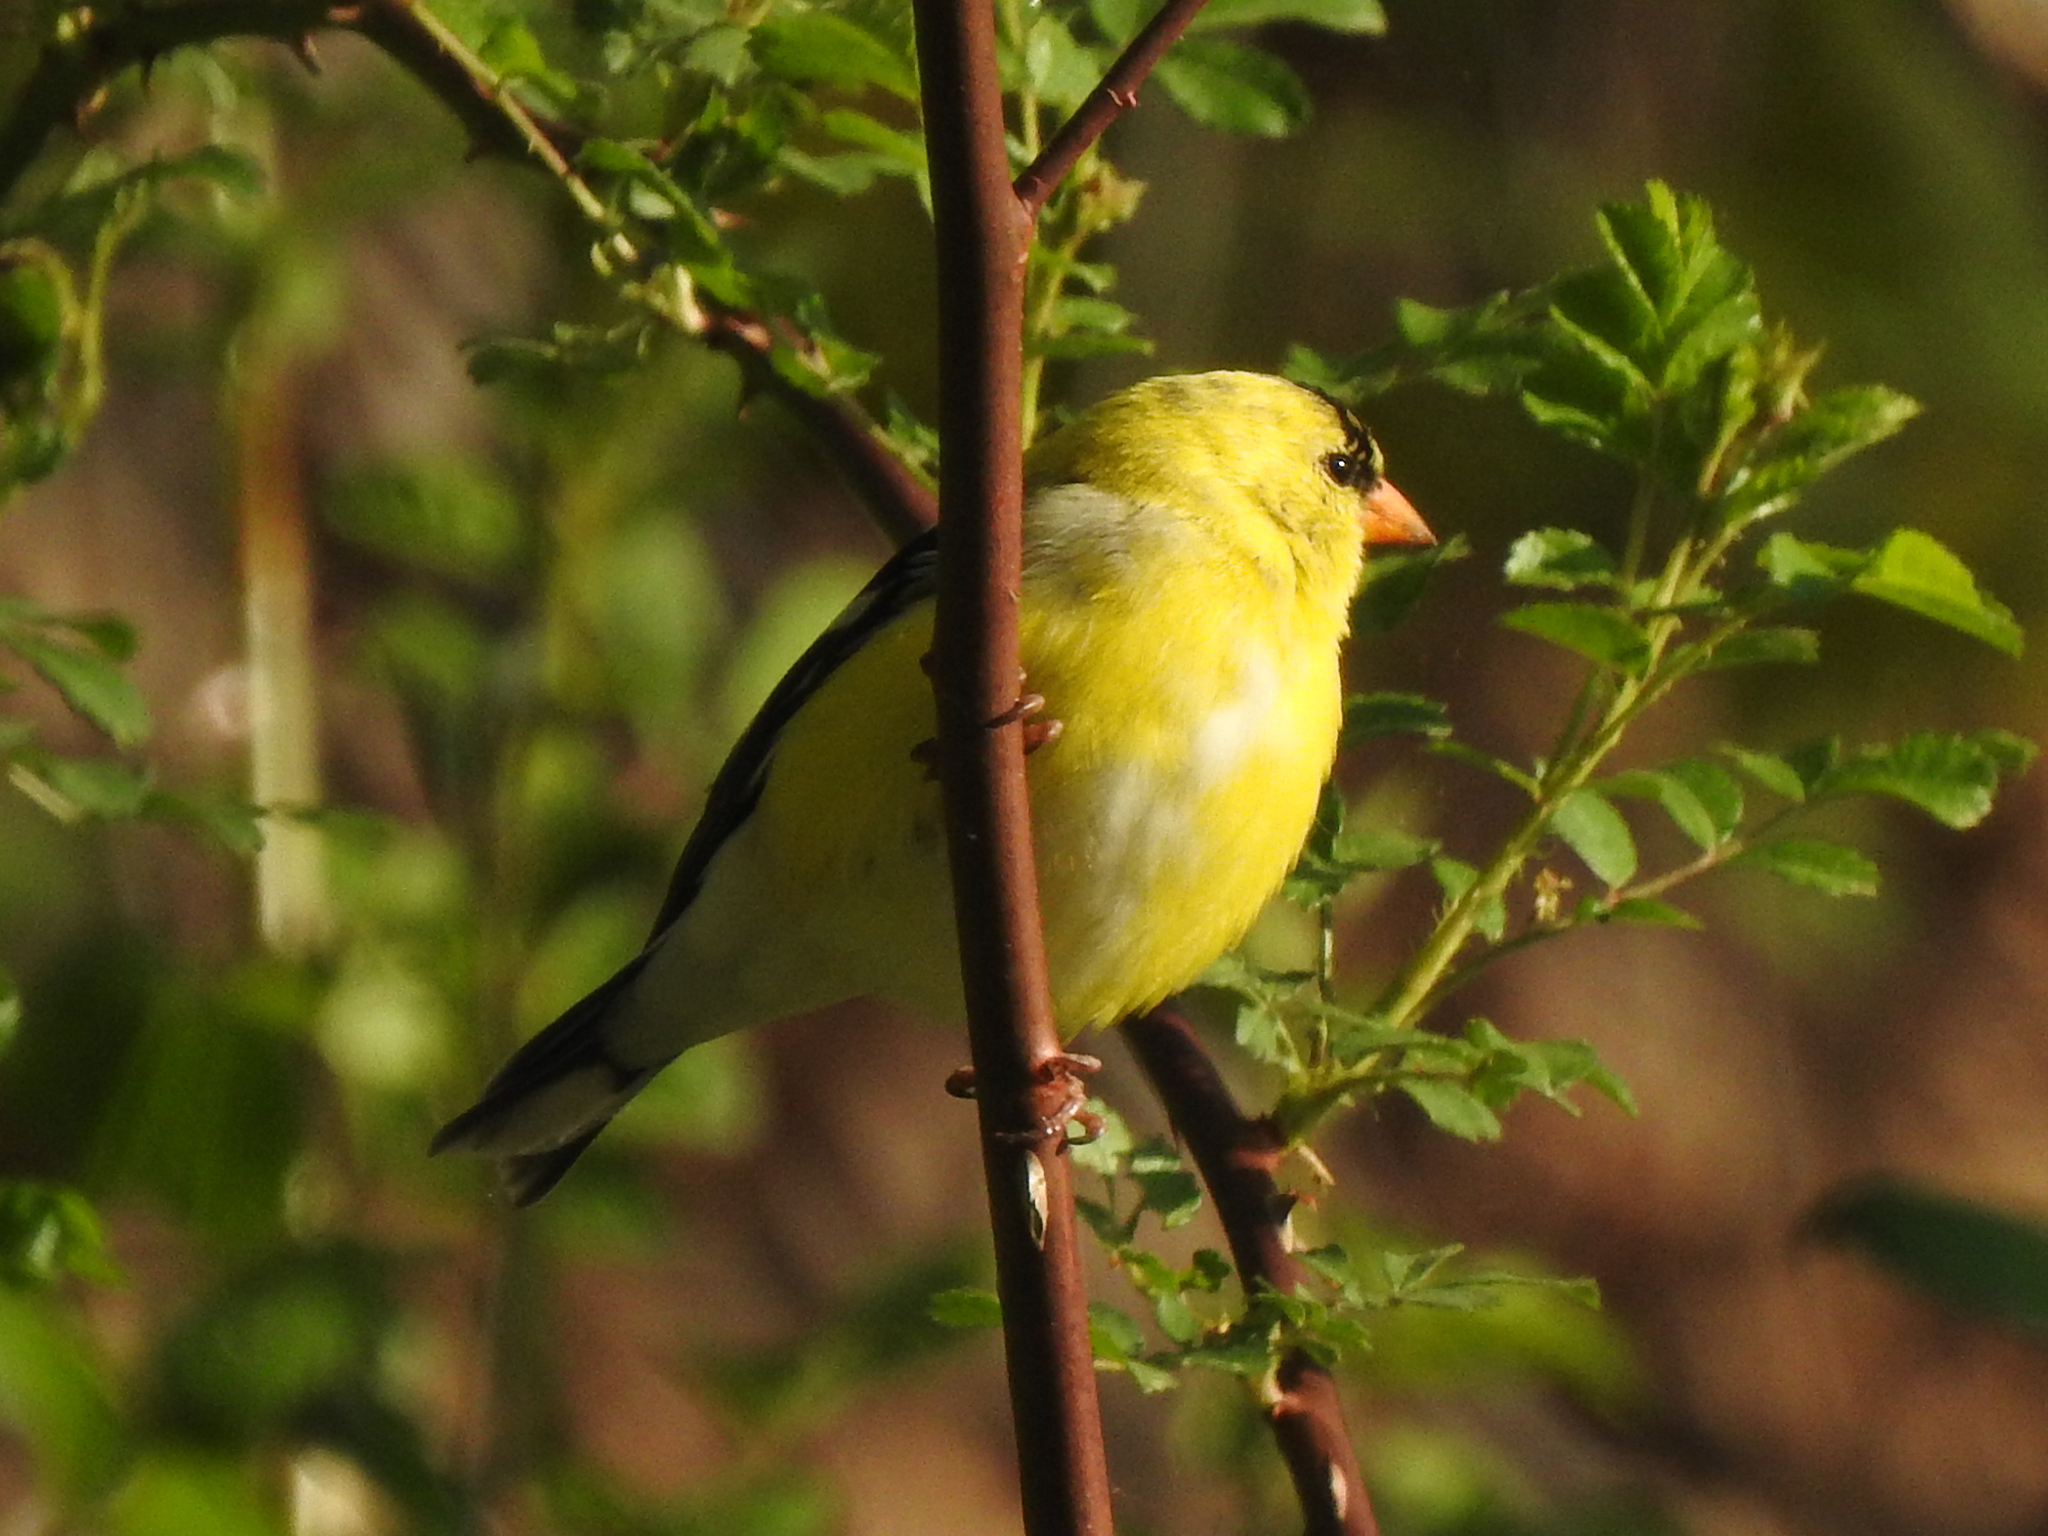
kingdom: Animalia
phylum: Chordata
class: Aves
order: Passeriformes
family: Fringillidae
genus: Spinus
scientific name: Spinus tristis
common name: American goldfinch
